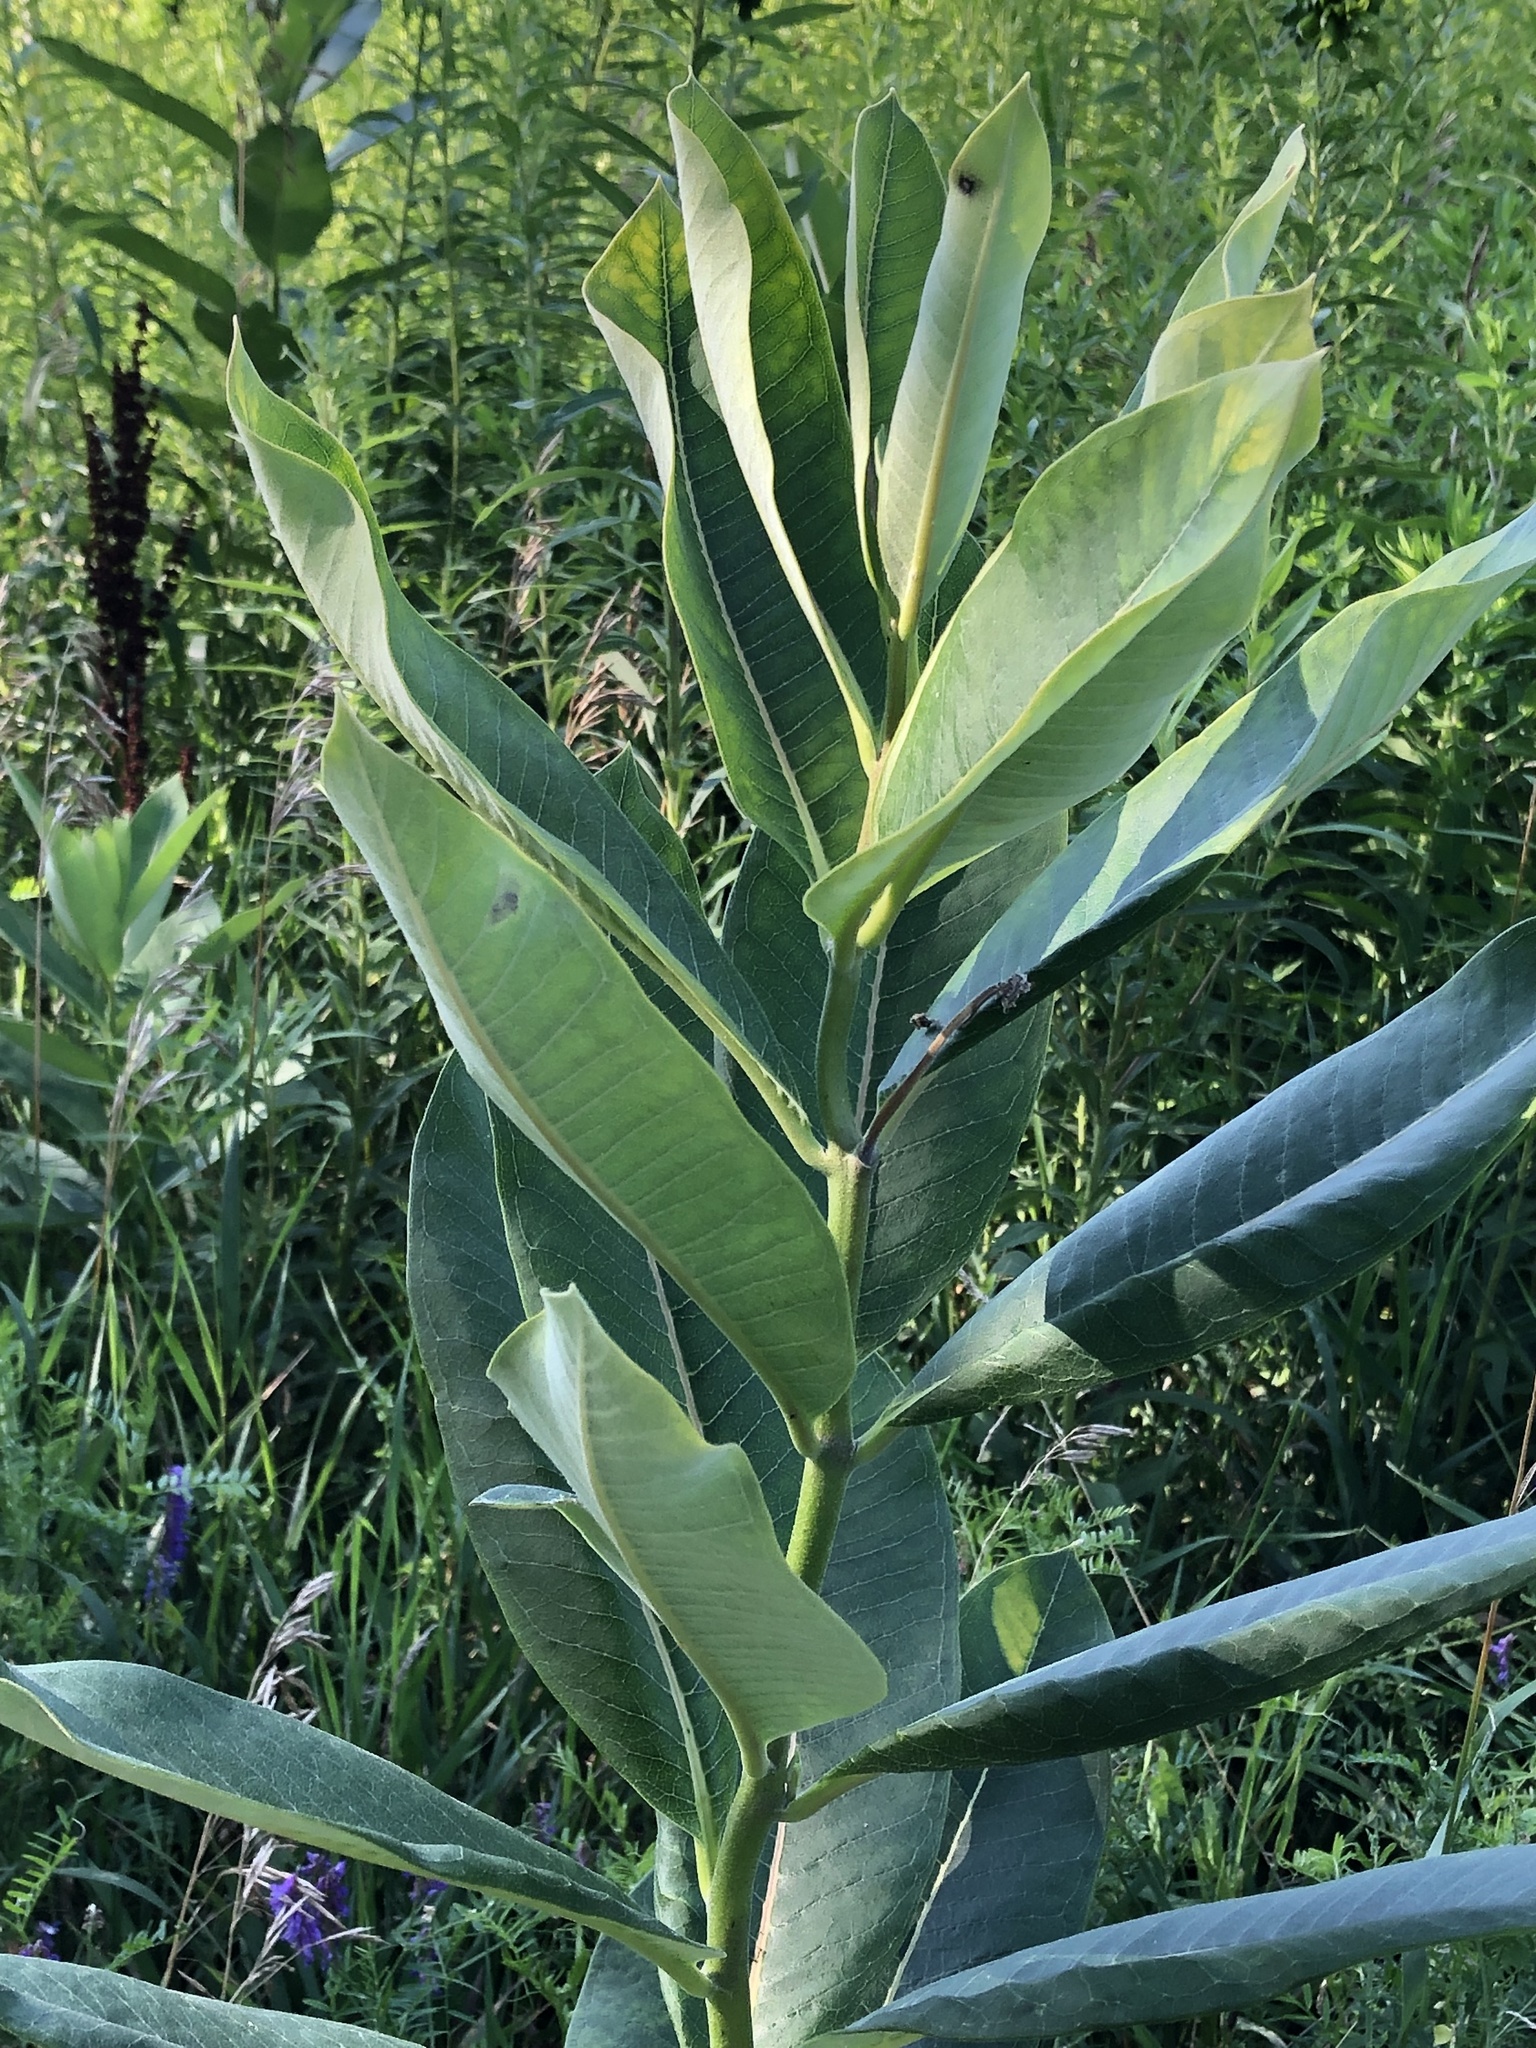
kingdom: Plantae
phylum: Tracheophyta
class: Magnoliopsida
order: Gentianales
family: Apocynaceae
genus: Asclepias
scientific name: Asclepias syriaca
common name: Common milkweed
